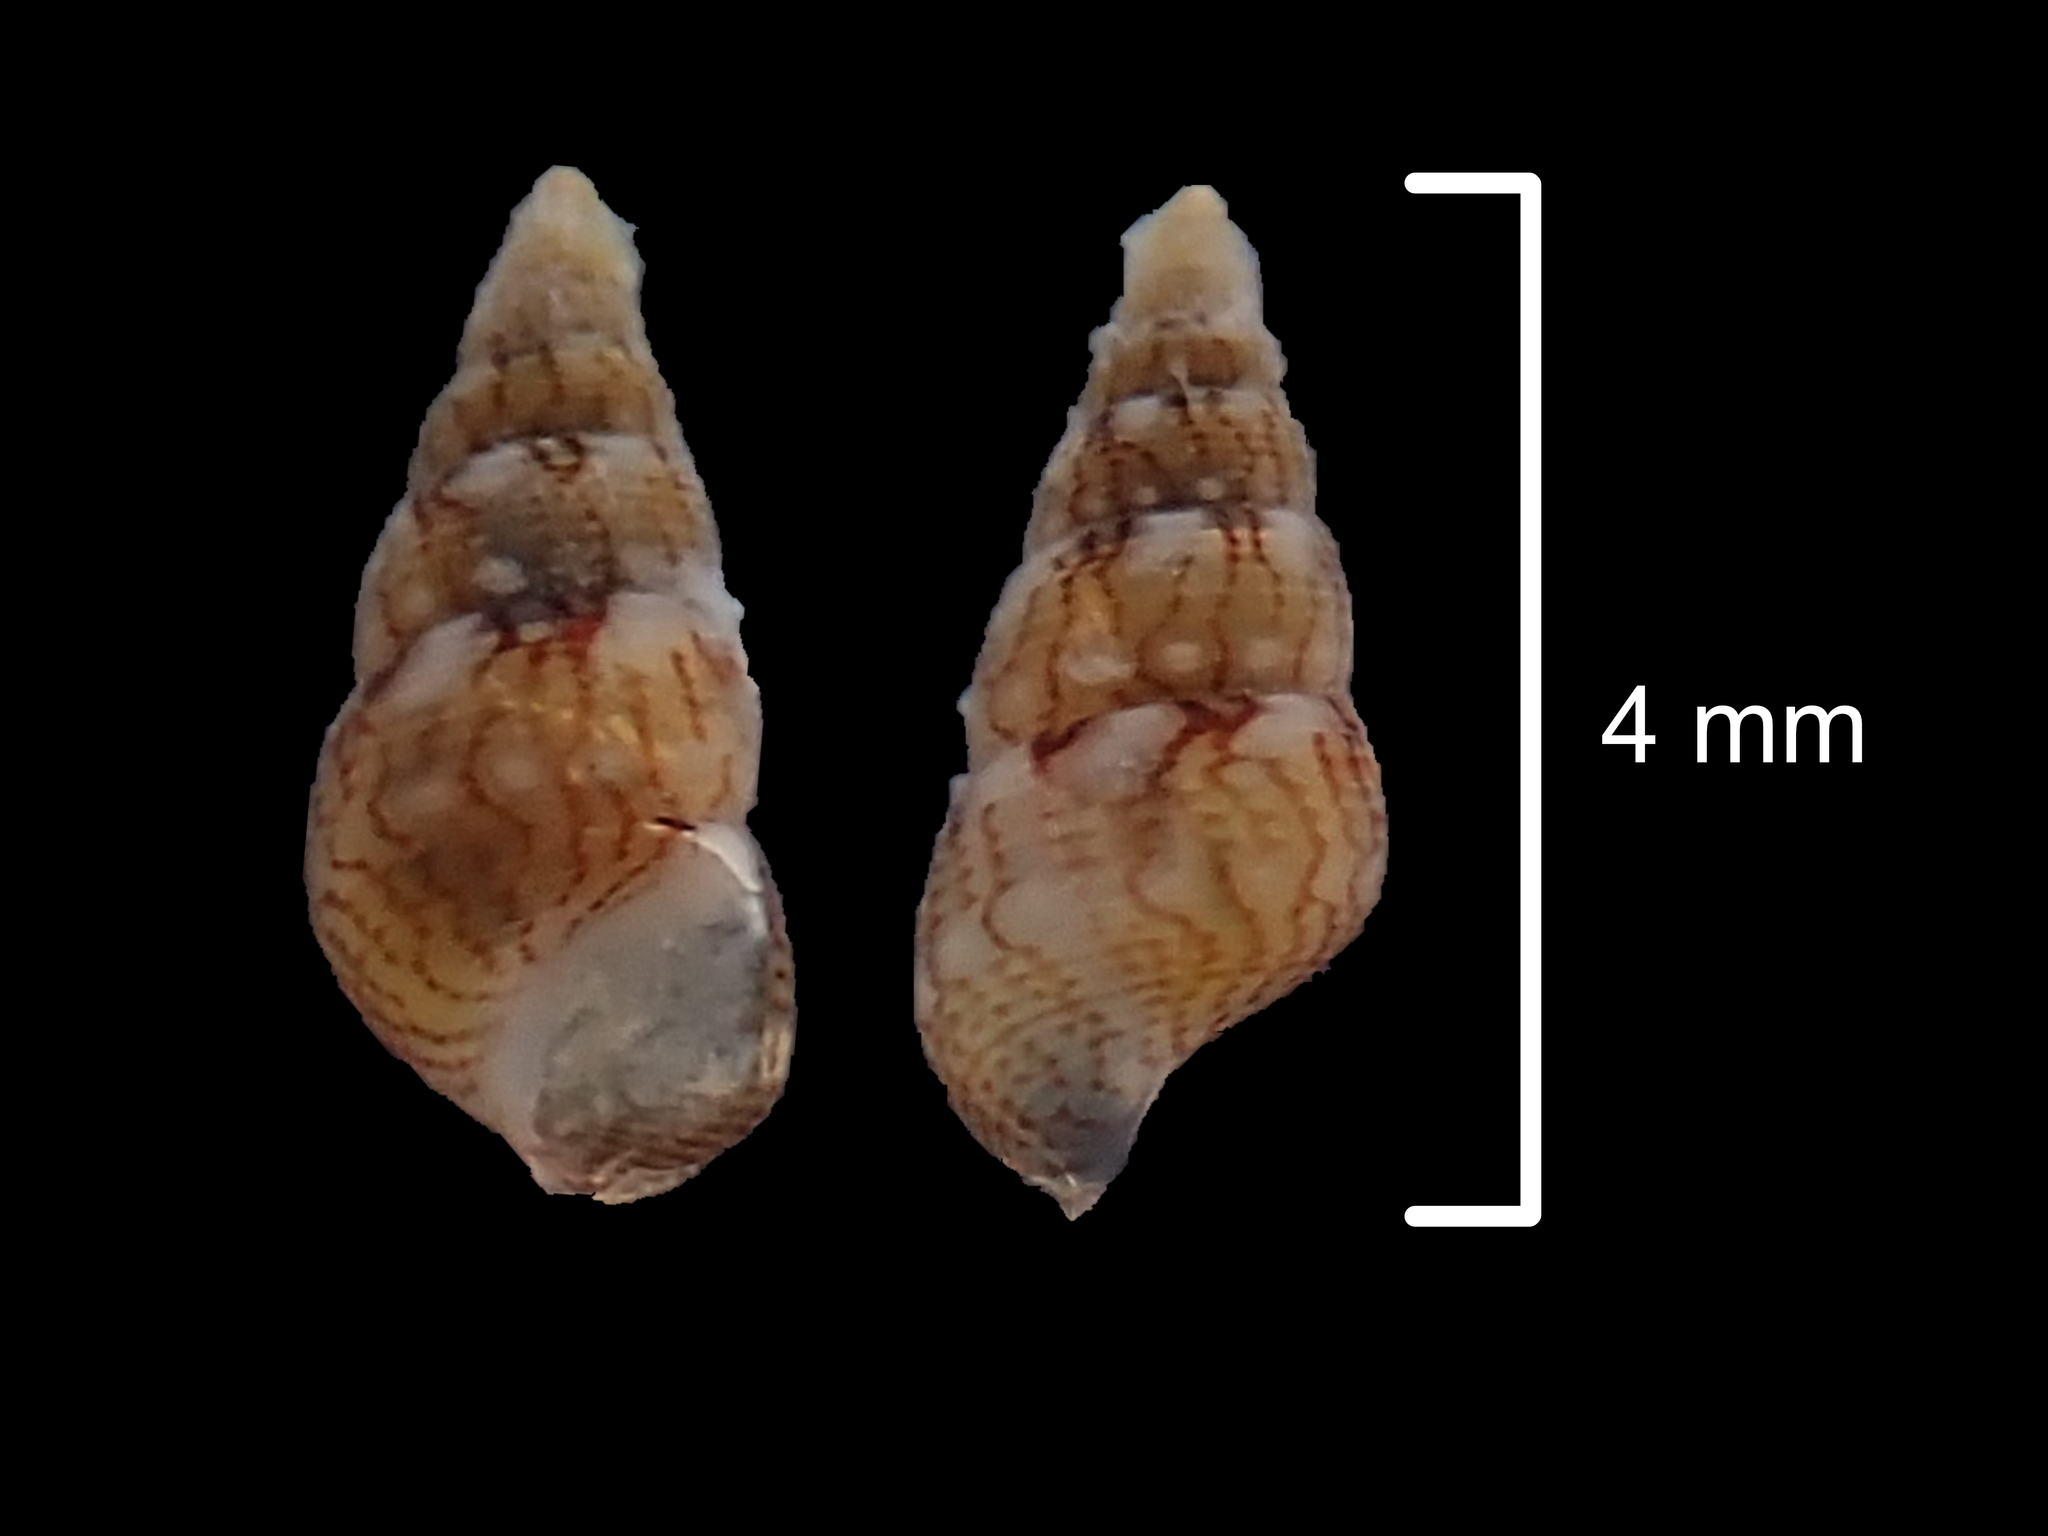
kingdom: Animalia
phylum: Mollusca
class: Gastropoda
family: Litiopidae
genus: Diffalaba
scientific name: Diffalaba opiniosa
